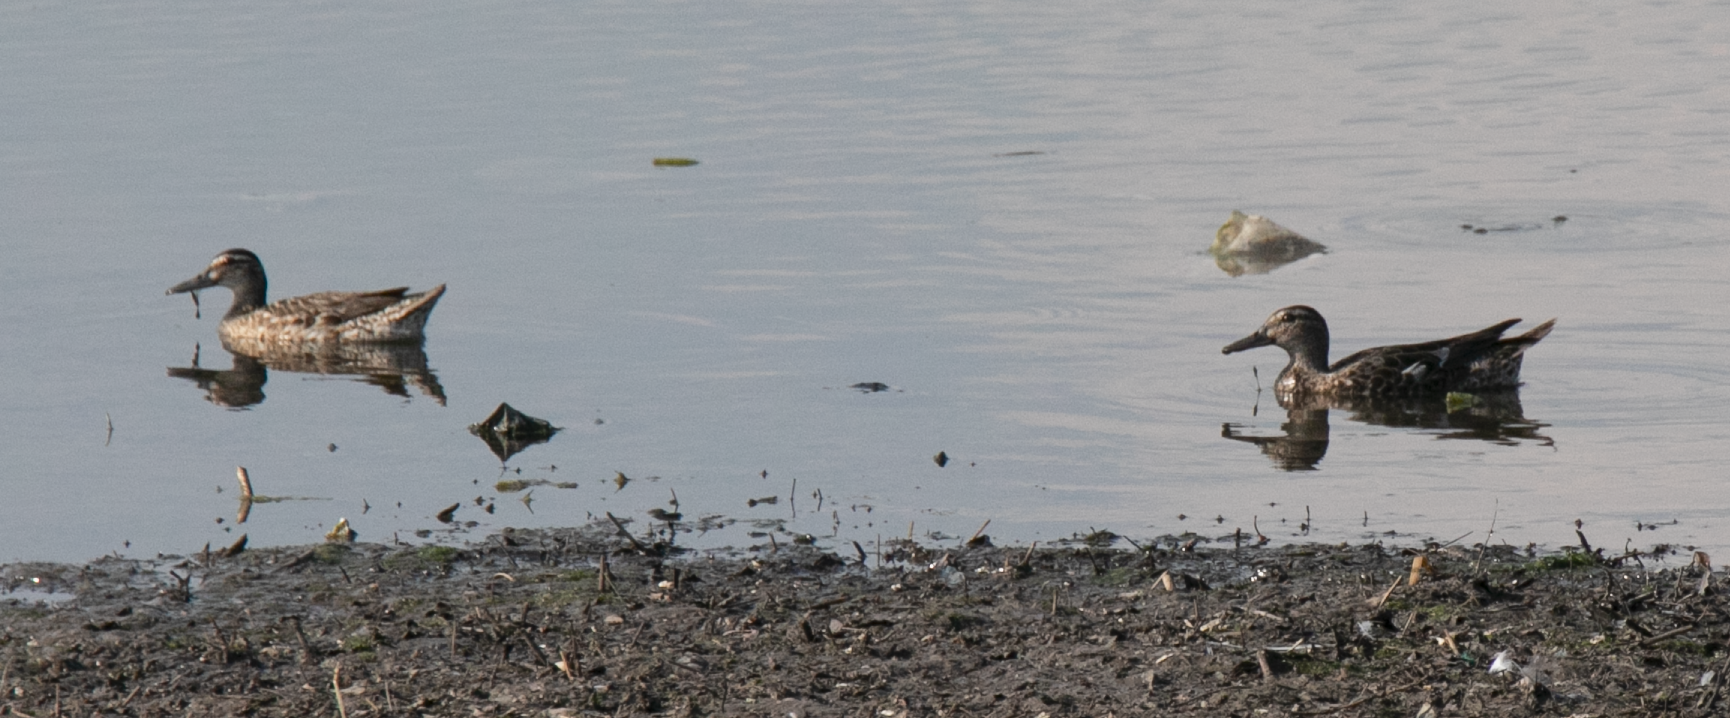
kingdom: Animalia
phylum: Chordata
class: Aves
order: Anseriformes
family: Anatidae
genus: Spatula
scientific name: Spatula querquedula
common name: Garganey
